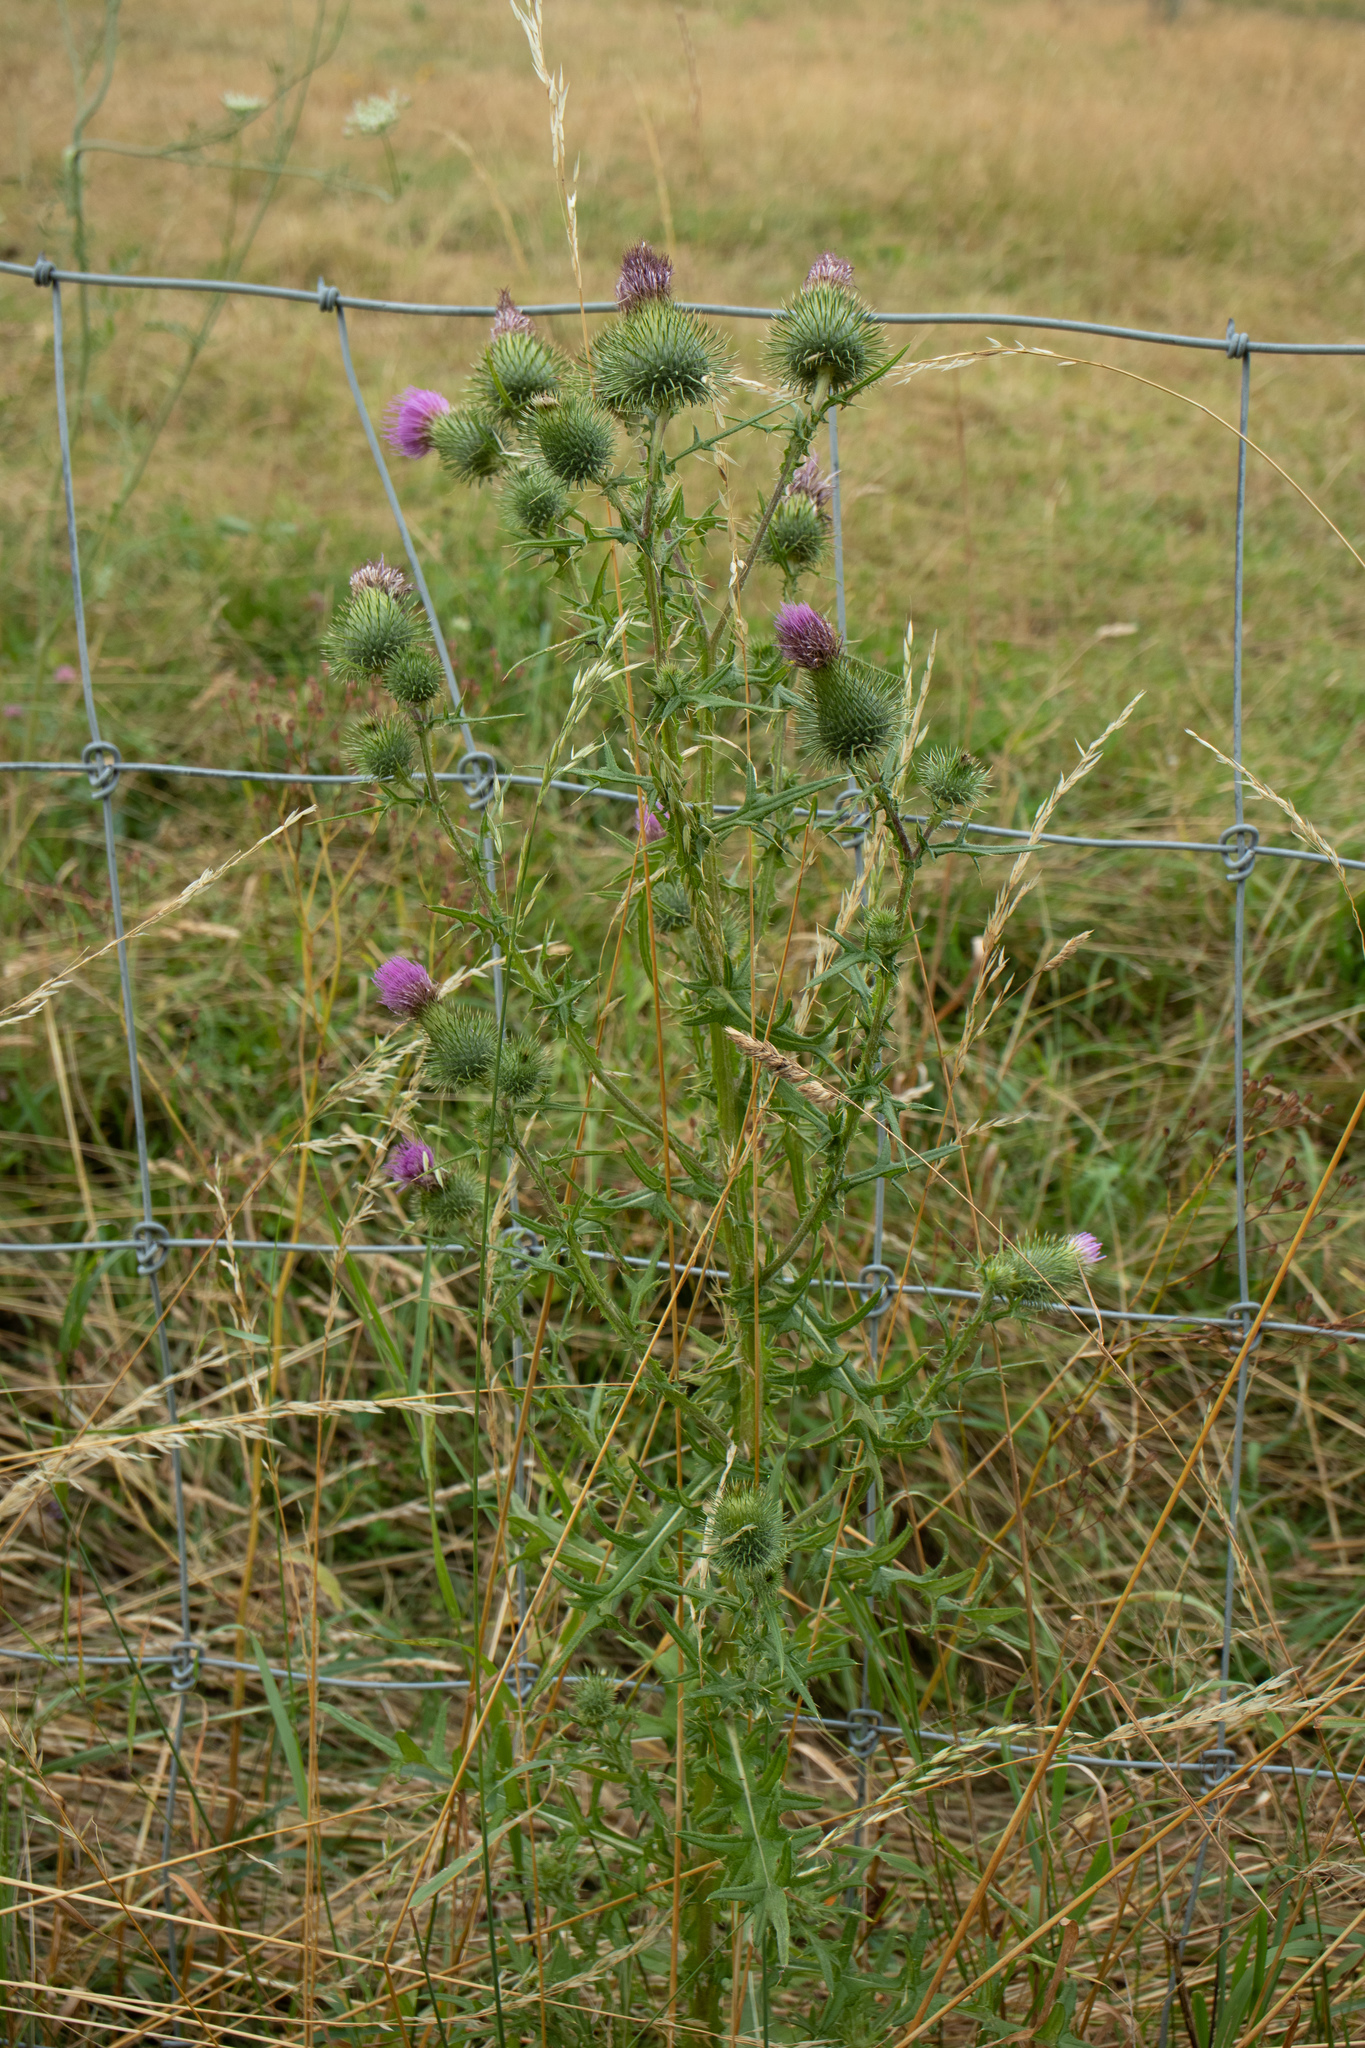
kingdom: Plantae
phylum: Tracheophyta
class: Magnoliopsida
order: Asterales
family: Asteraceae
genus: Cirsium
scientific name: Cirsium vulgare
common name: Bull thistle
